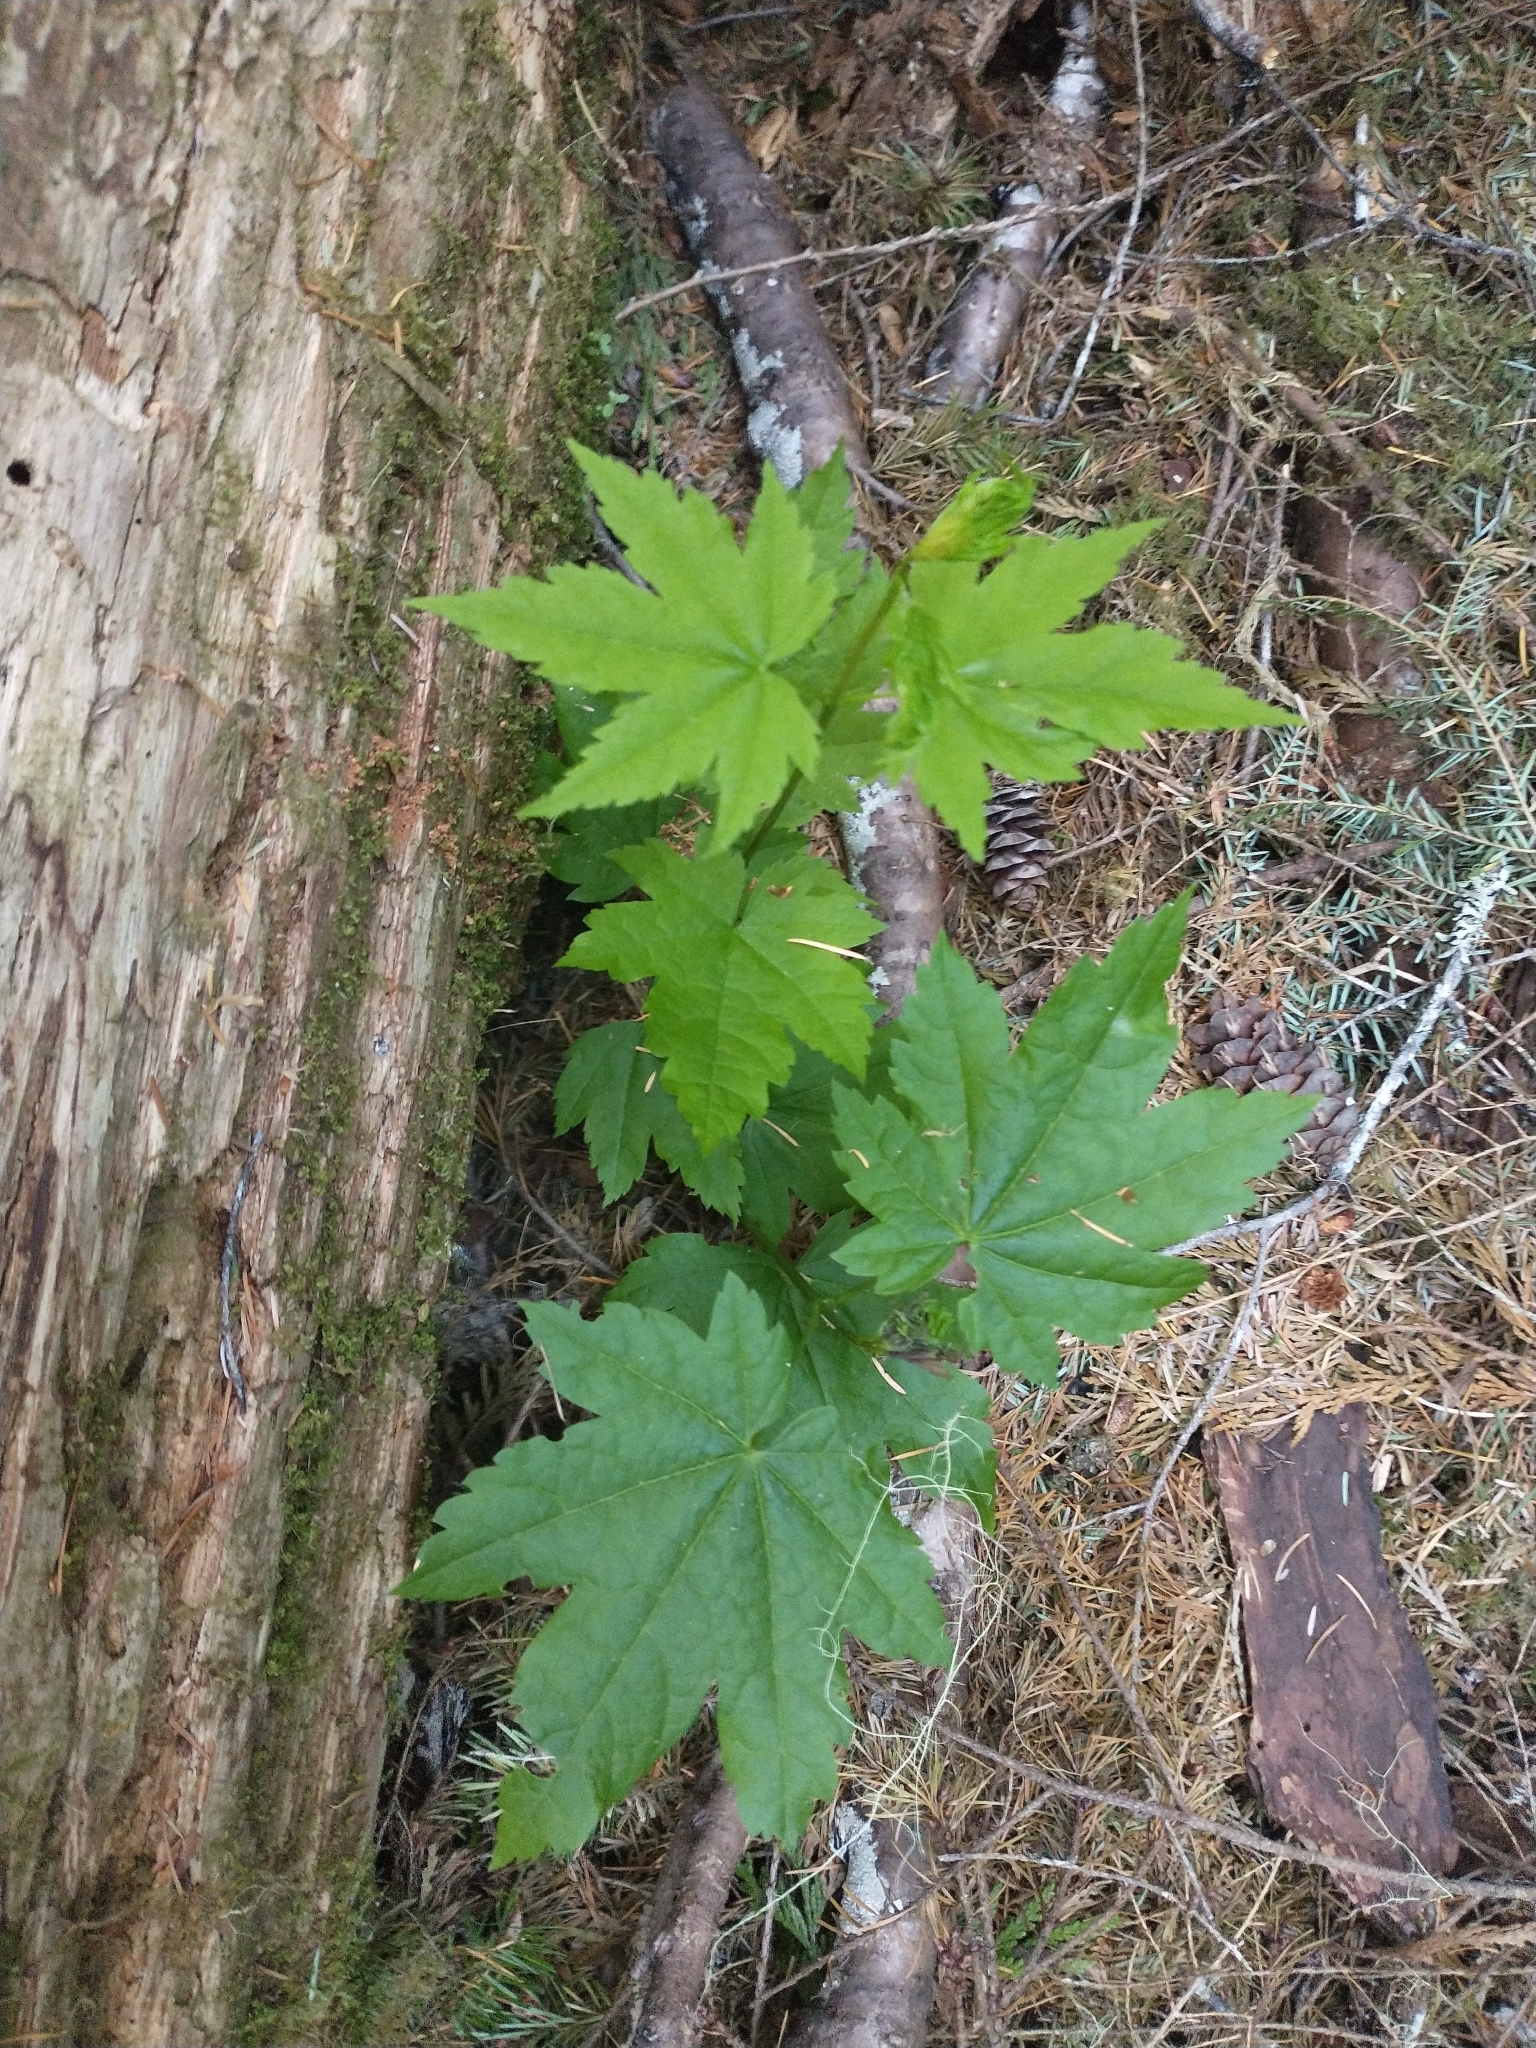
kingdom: Plantae
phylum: Tracheophyta
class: Magnoliopsida
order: Saxifragales
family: Grossulariaceae
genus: Ribes
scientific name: Ribes bracteosum
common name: California black currant
